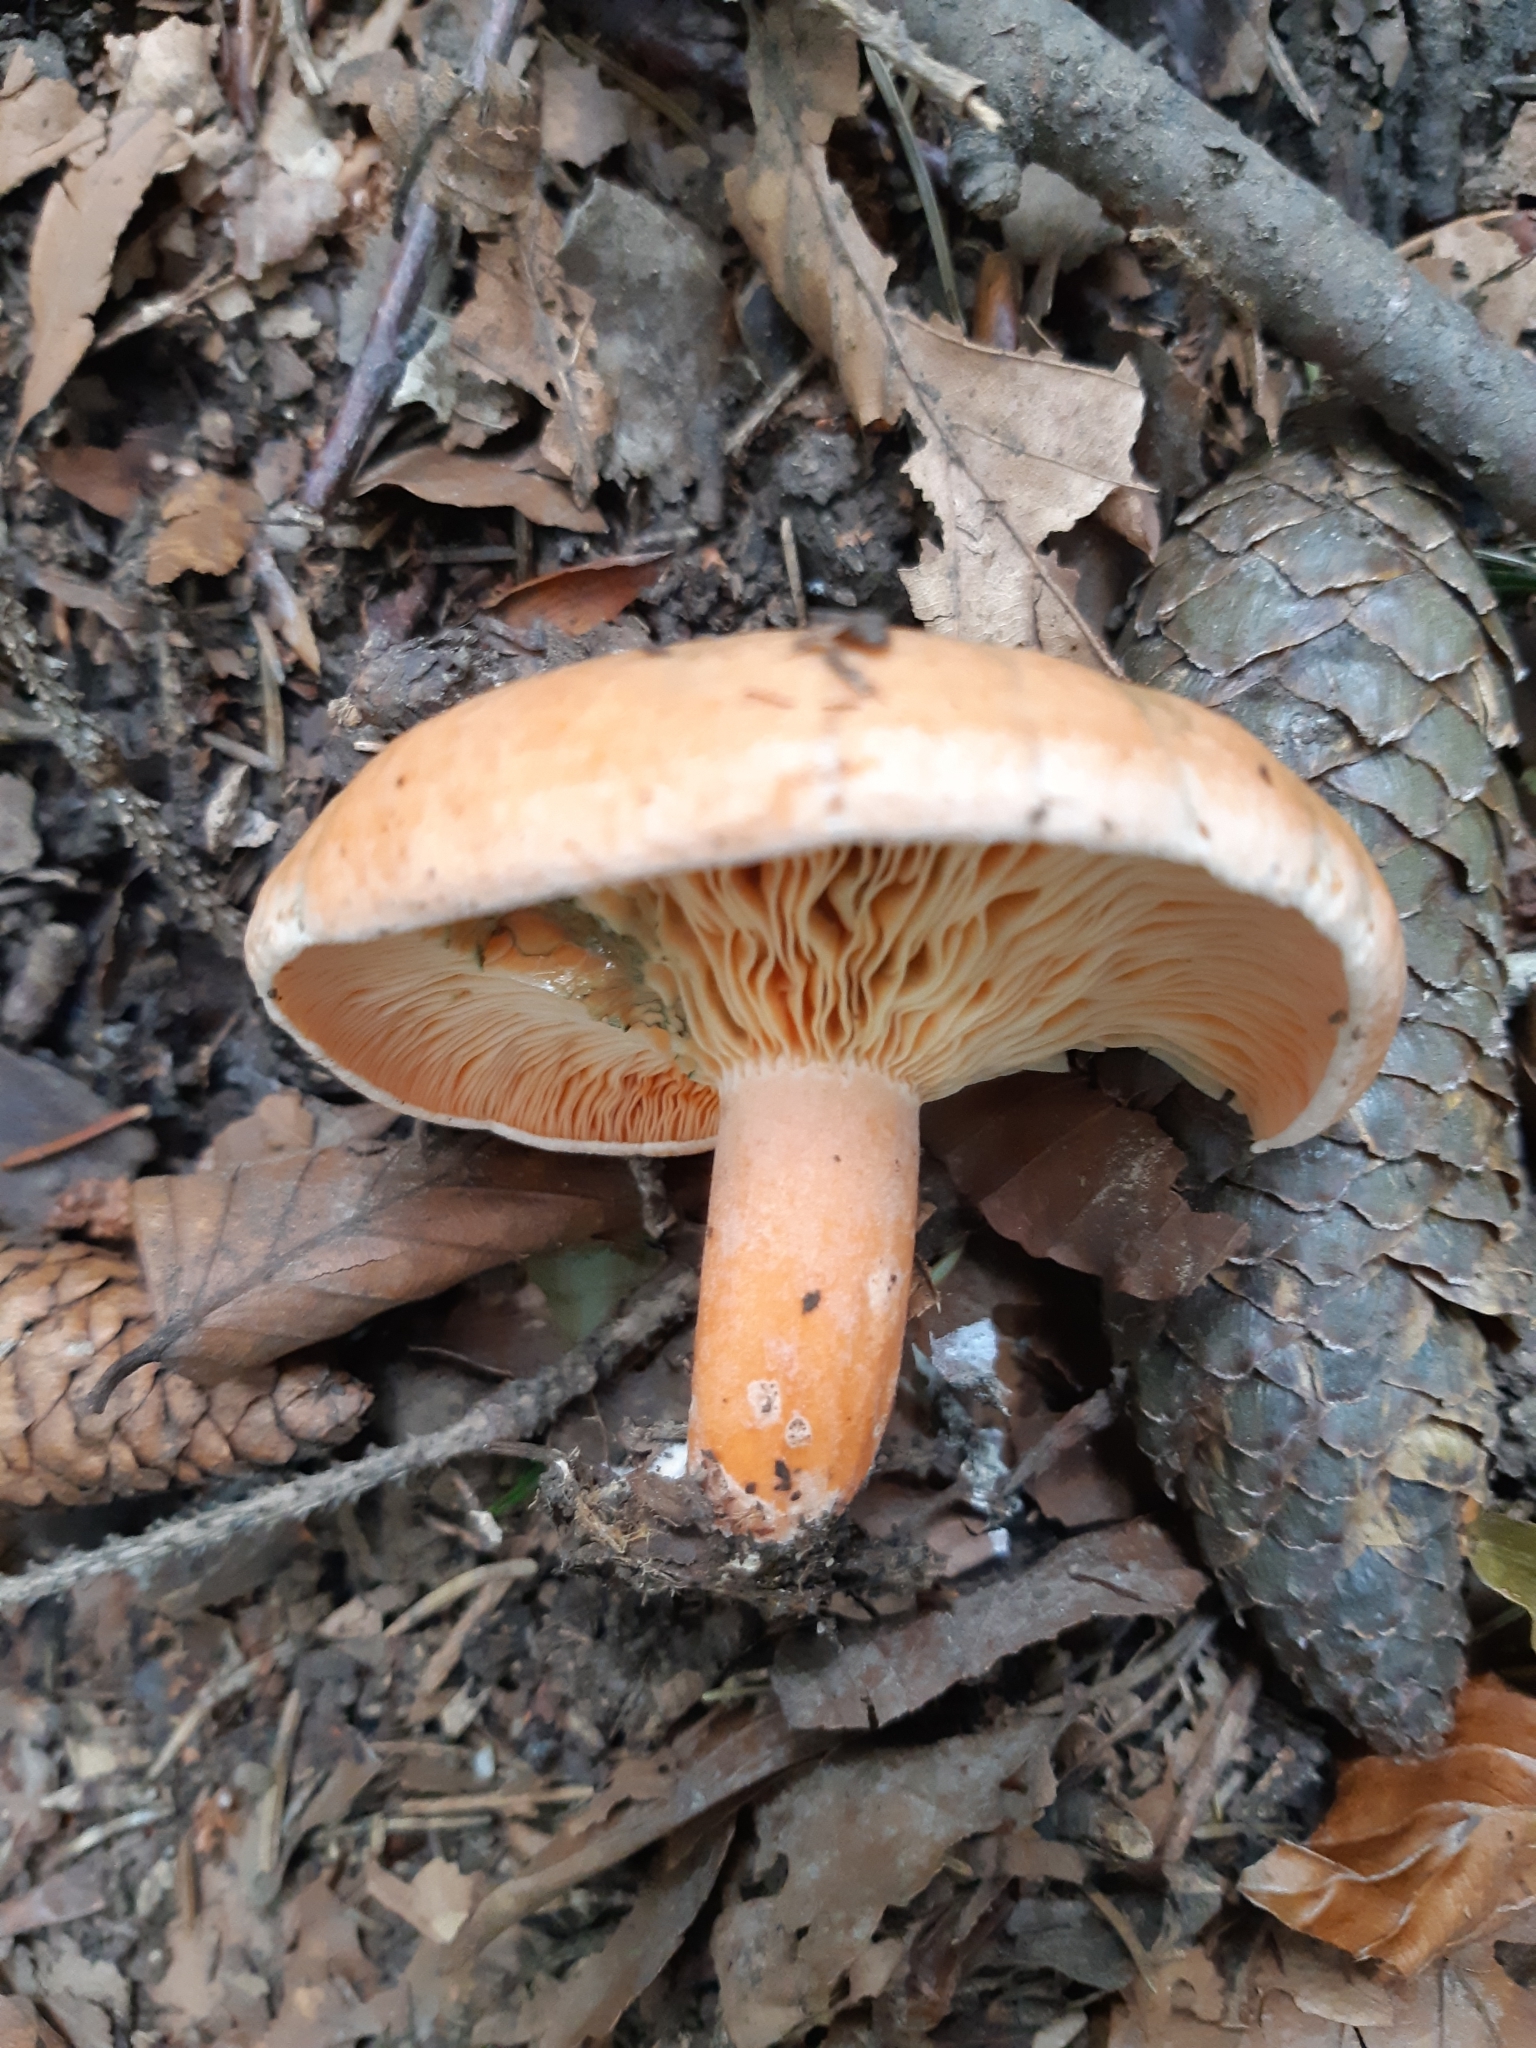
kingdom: Fungi
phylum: Basidiomycota
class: Agaricomycetes
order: Russulales
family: Russulaceae
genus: Lactarius
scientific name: Lactarius deliciosus
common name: Saffron milk-cap
